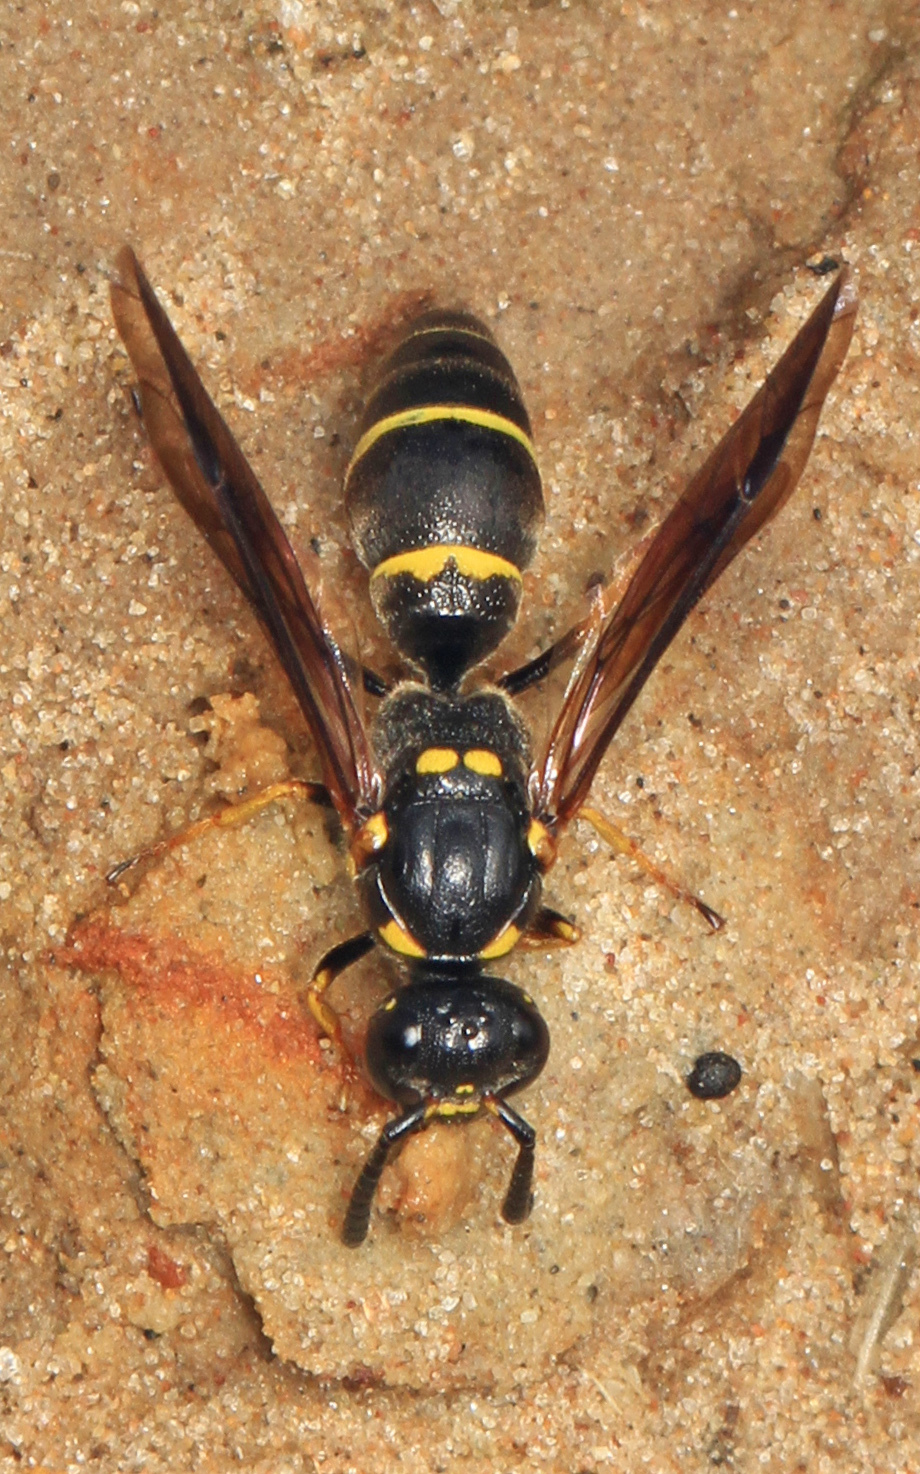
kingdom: Animalia
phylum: Arthropoda
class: Insecta
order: Hymenoptera
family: Eumenidae
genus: Symmorphus
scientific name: Symmorphus albomarginatus
